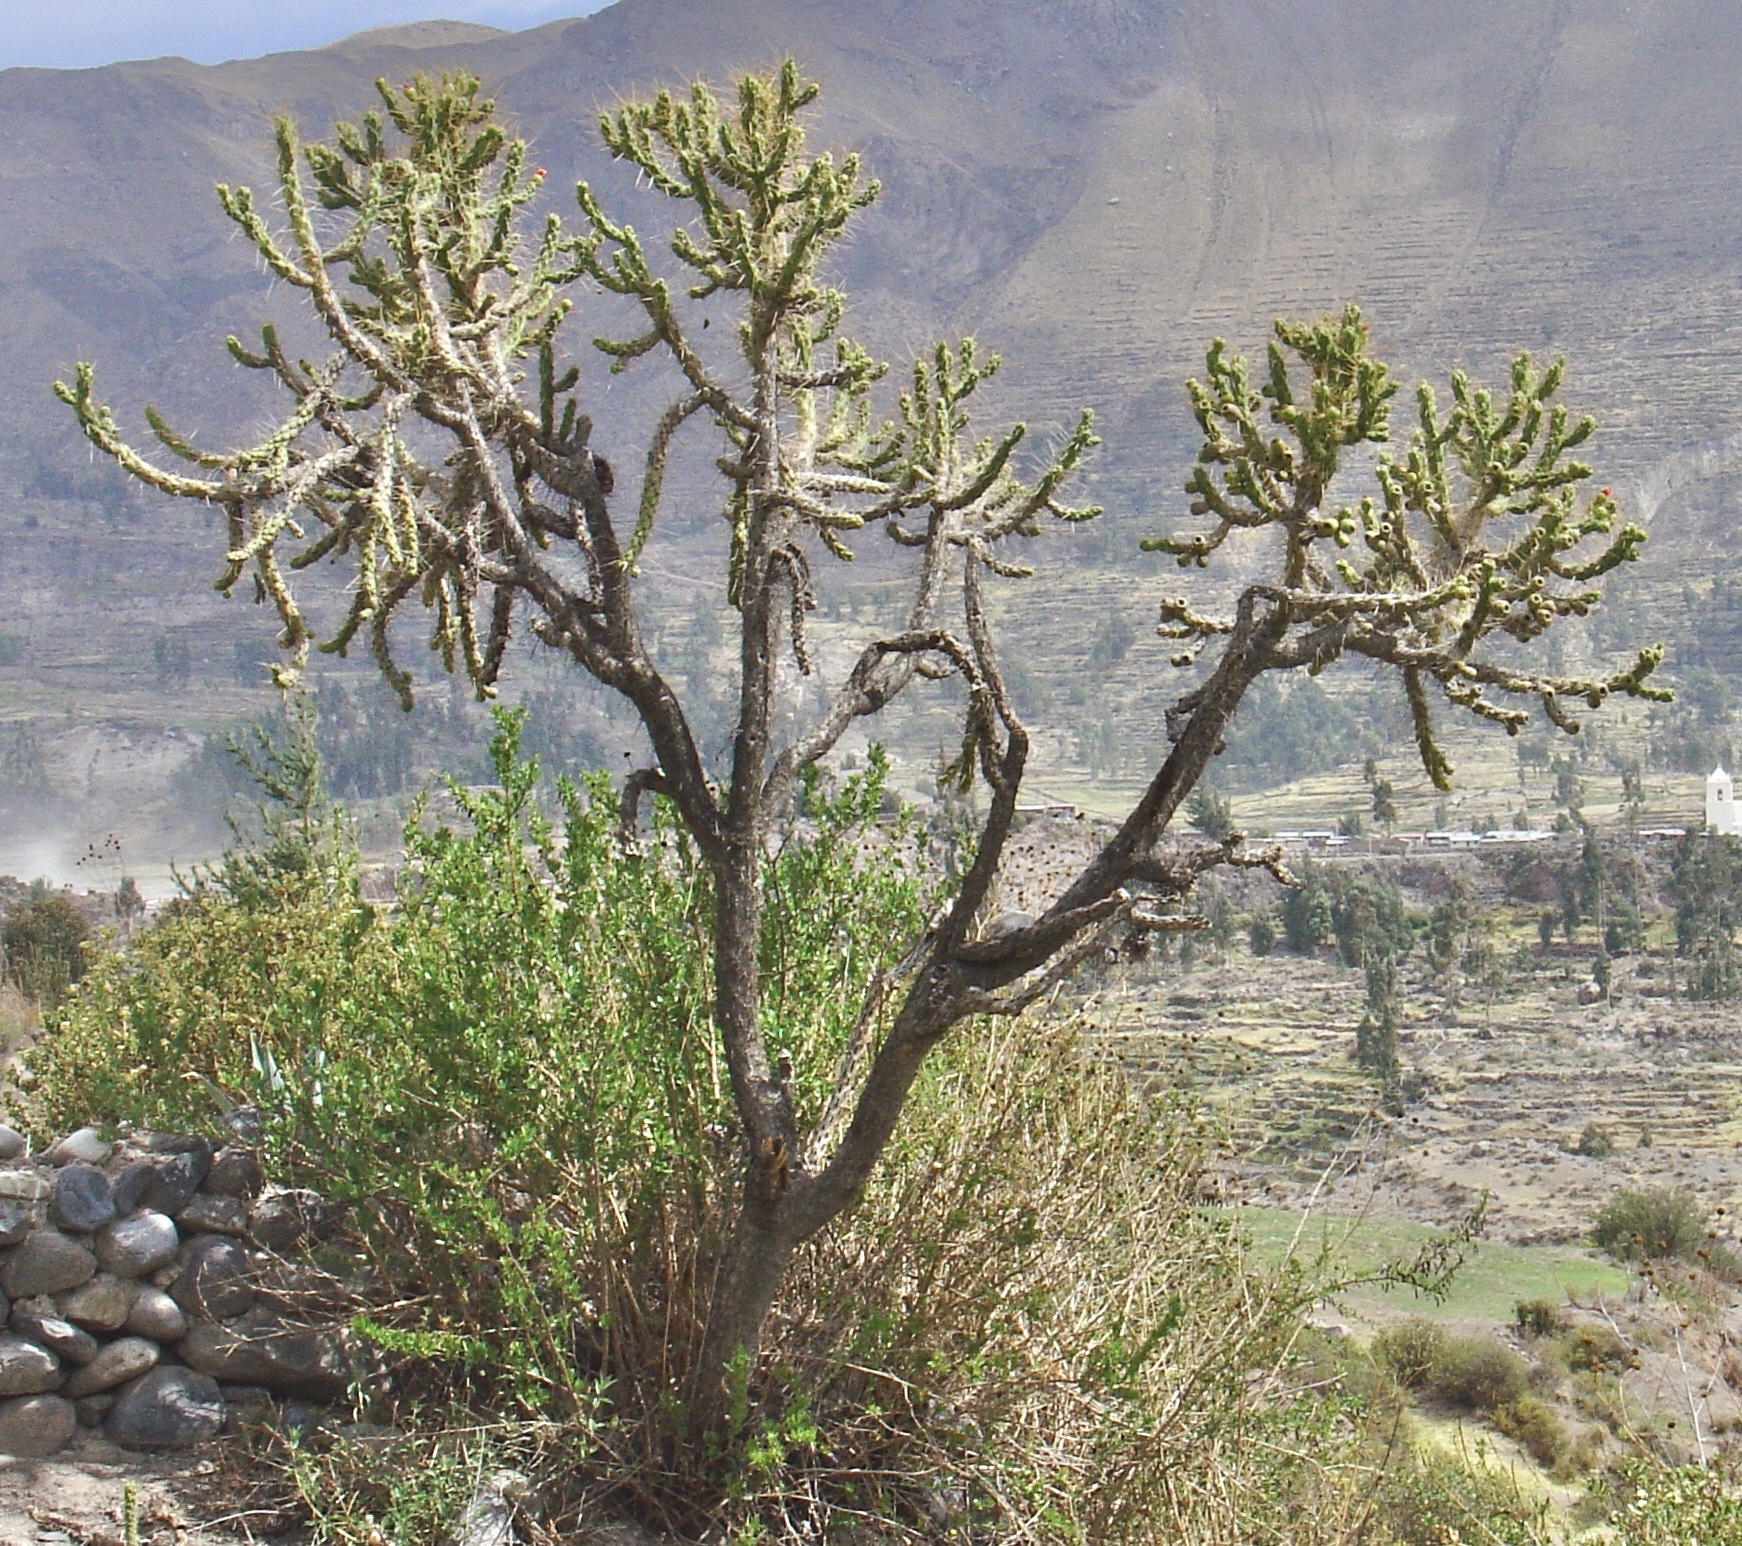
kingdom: Plantae
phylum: Tracheophyta
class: Magnoliopsida
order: Caryophyllales
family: Cactaceae
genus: Austrocylindropuntia
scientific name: Austrocylindropuntia subulata
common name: Eve's needle cactus
